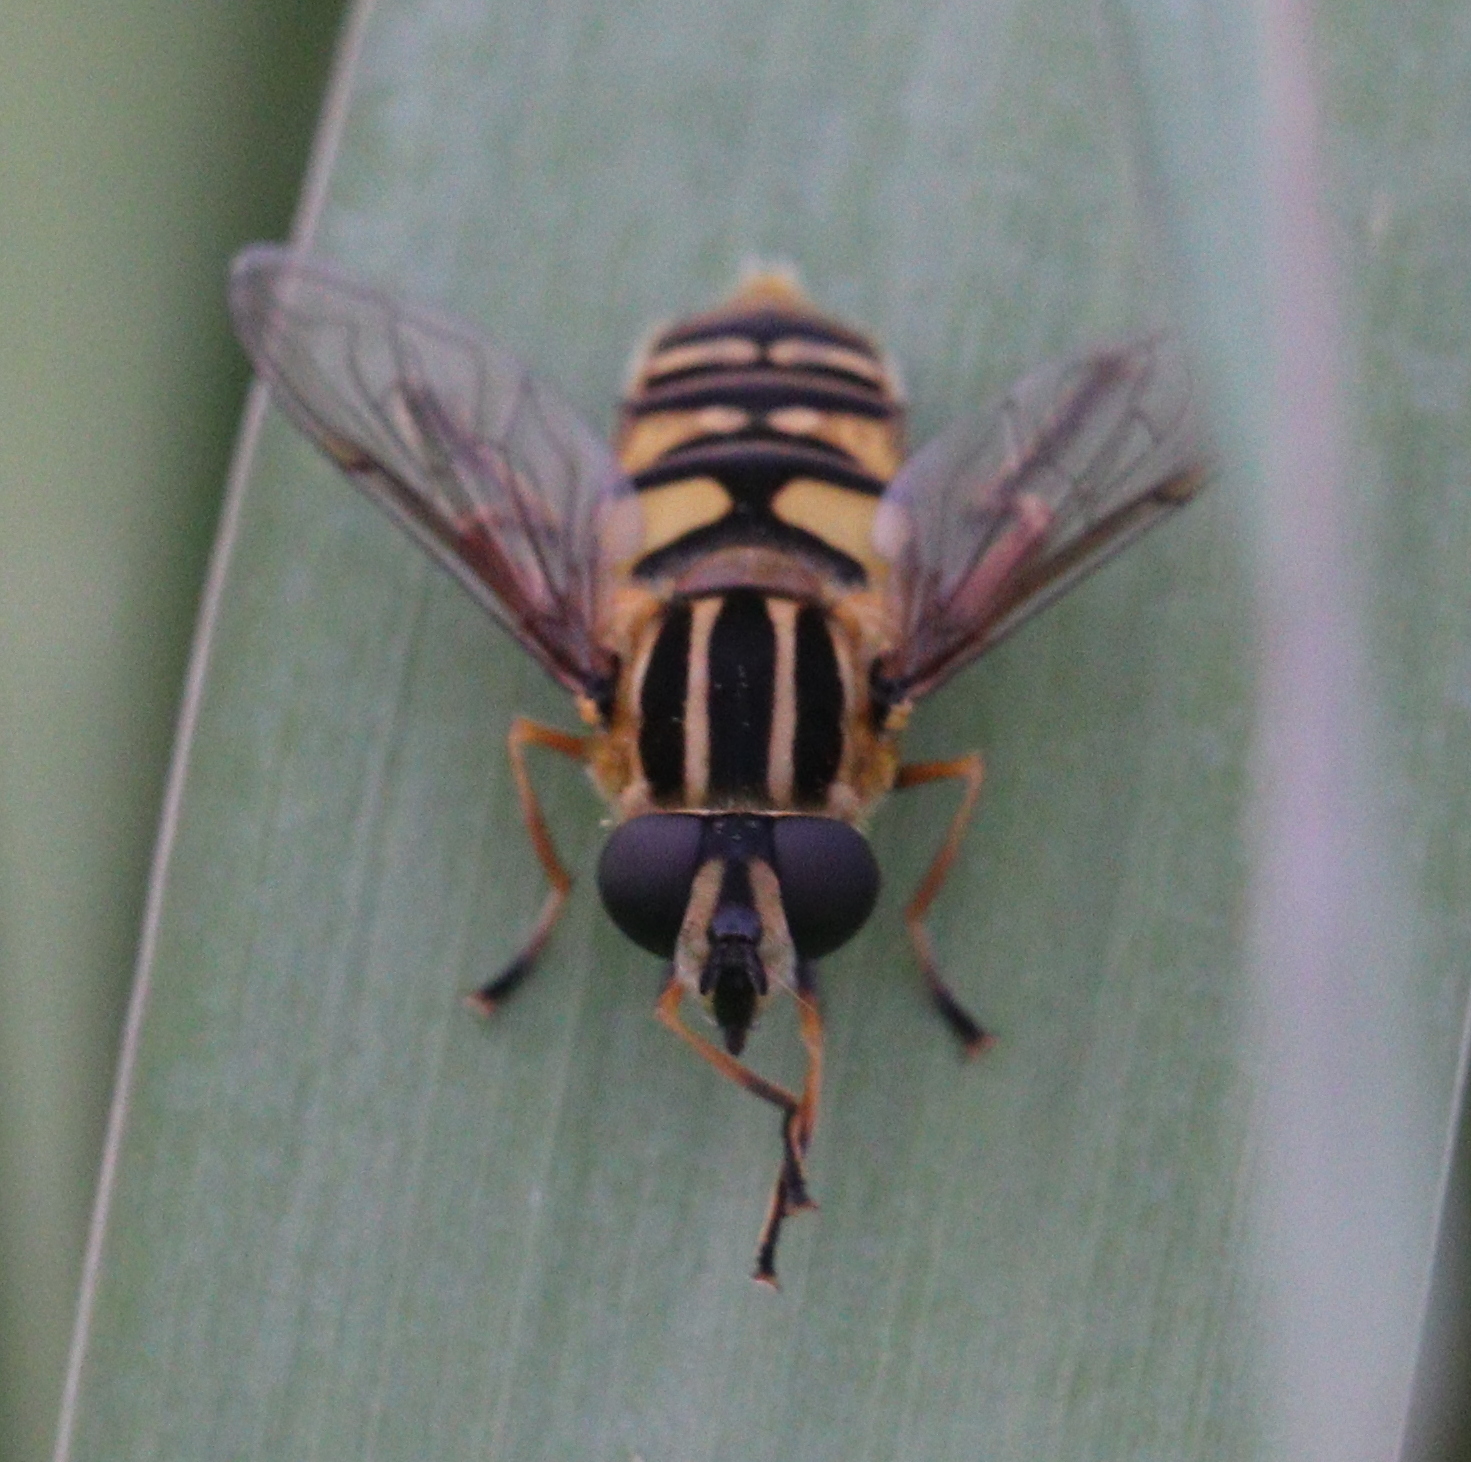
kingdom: Animalia
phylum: Arthropoda
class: Insecta
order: Diptera
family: Syrphidae
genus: Helophilus
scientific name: Helophilus pendulus
